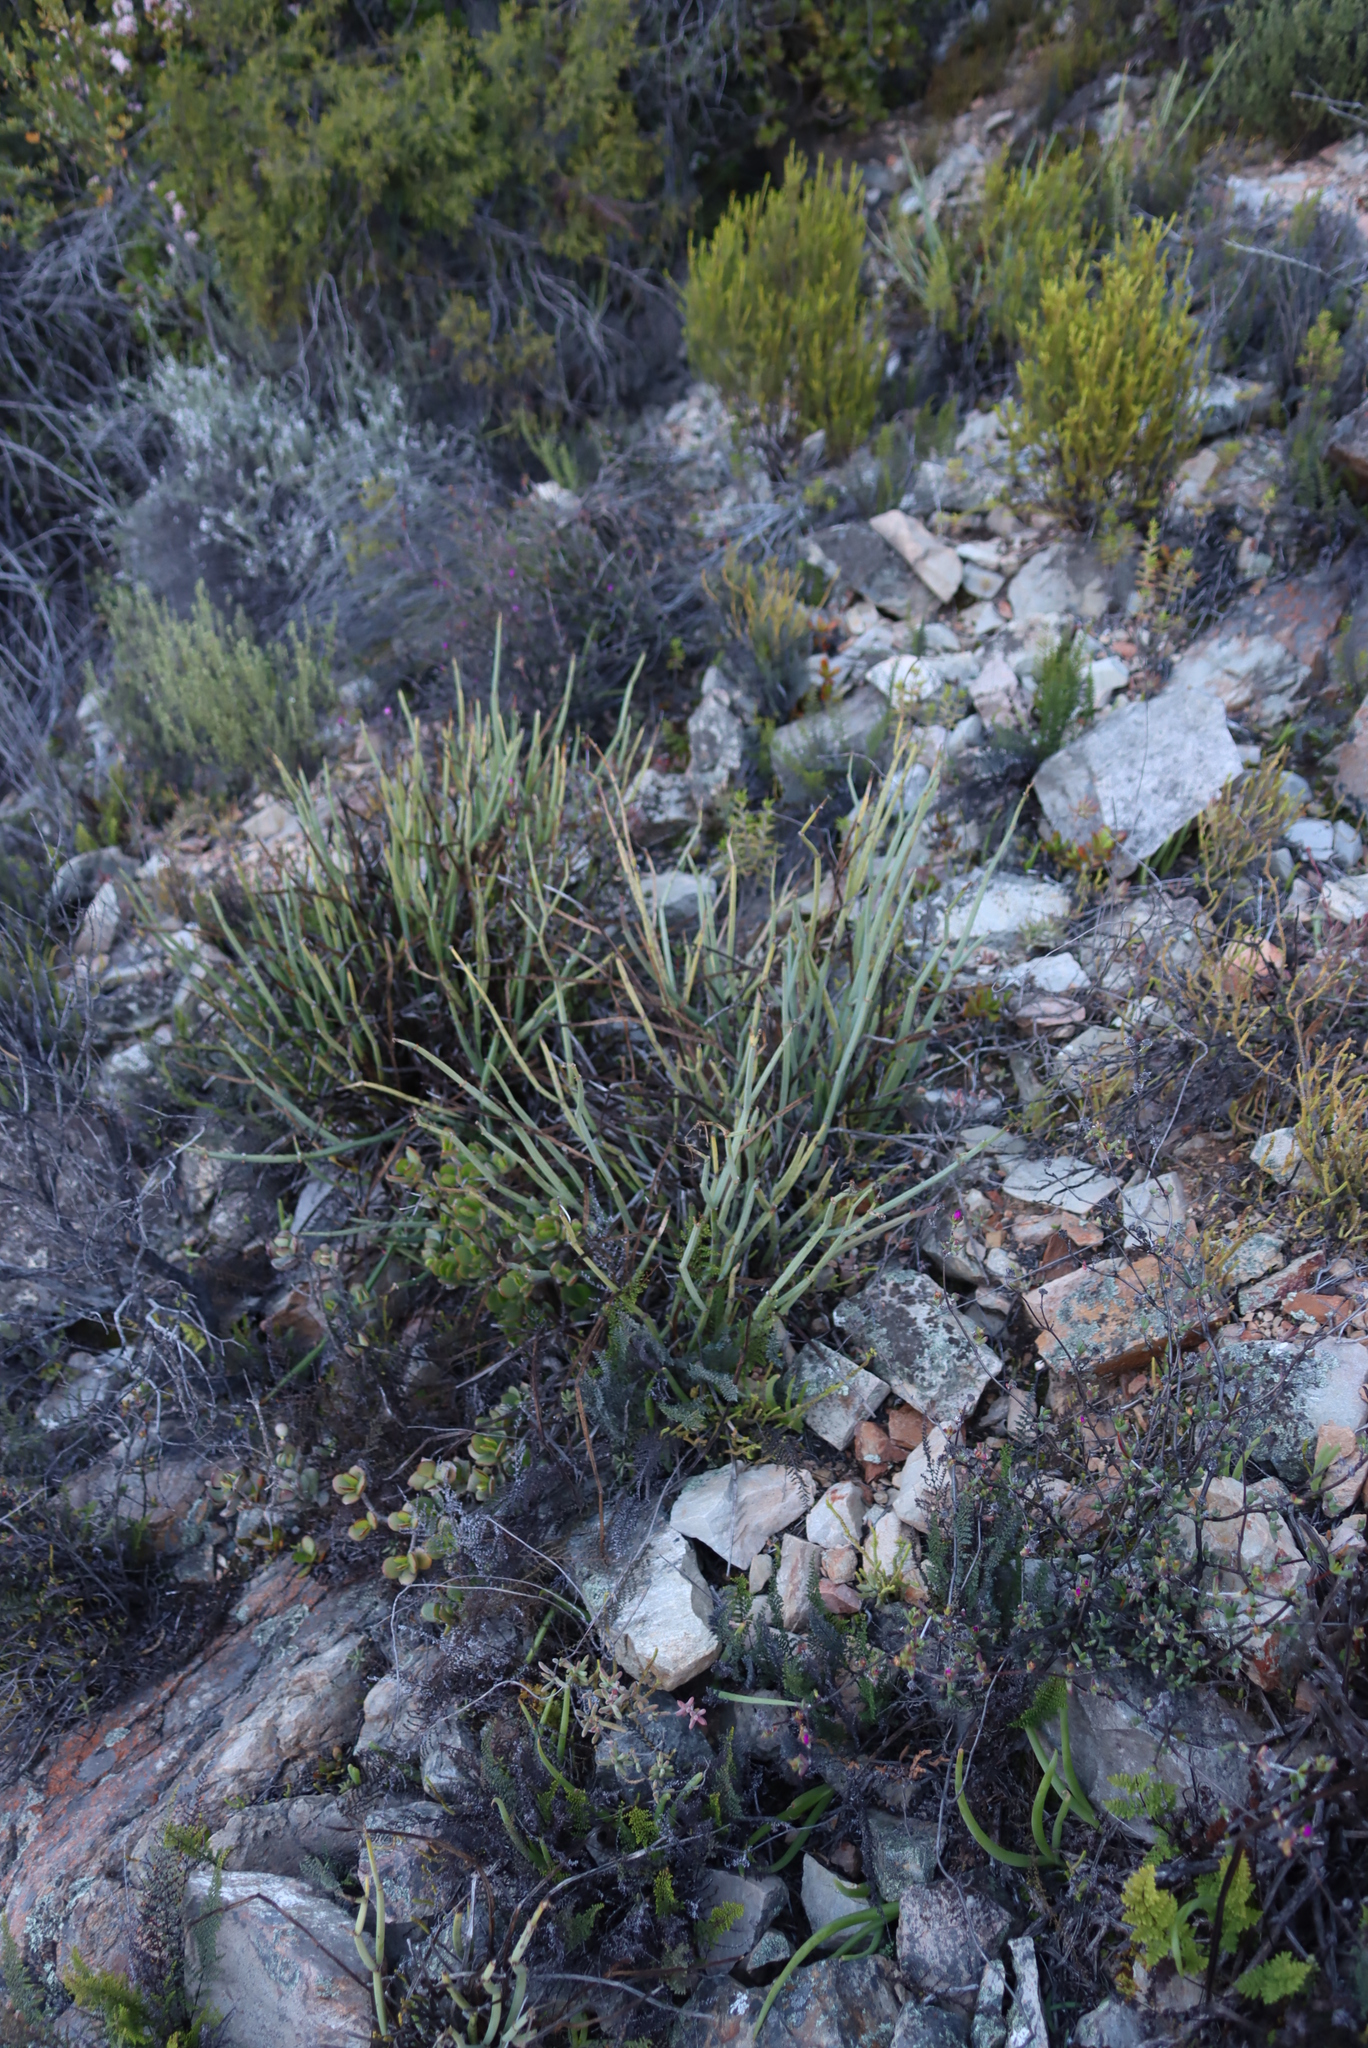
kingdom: Plantae
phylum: Tracheophyta
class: Magnoliopsida
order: Geraniales
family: Geraniaceae
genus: Pelargonium
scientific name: Pelargonium tetragonum
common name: Square-stack crane's-bill
